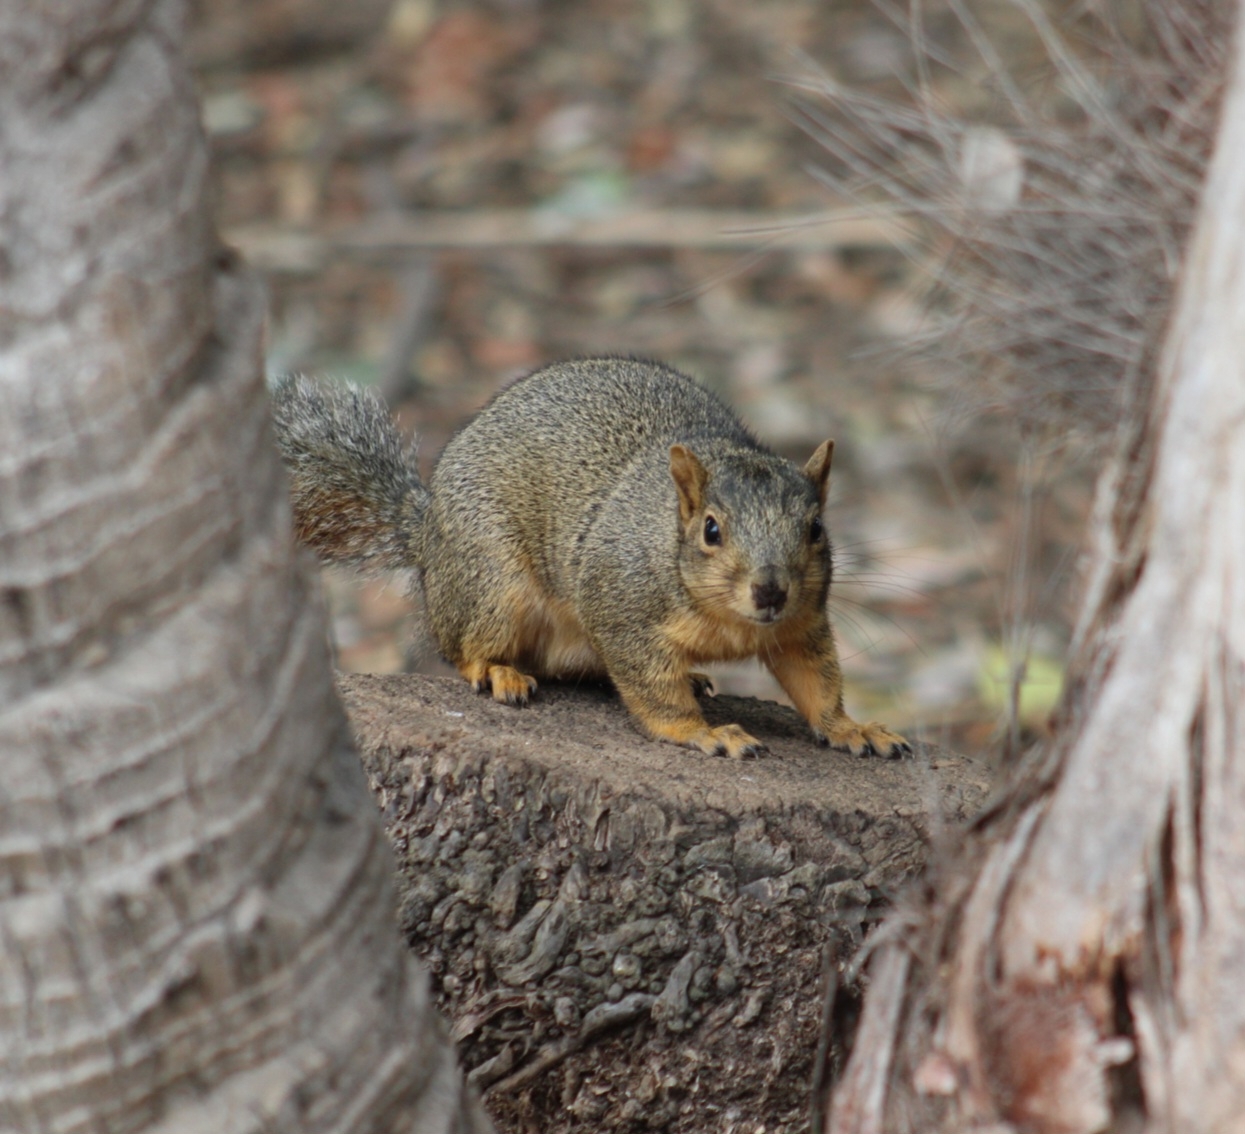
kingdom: Animalia
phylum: Chordata
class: Mammalia
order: Rodentia
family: Sciuridae
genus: Sciurus
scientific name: Sciurus niger
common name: Fox squirrel
